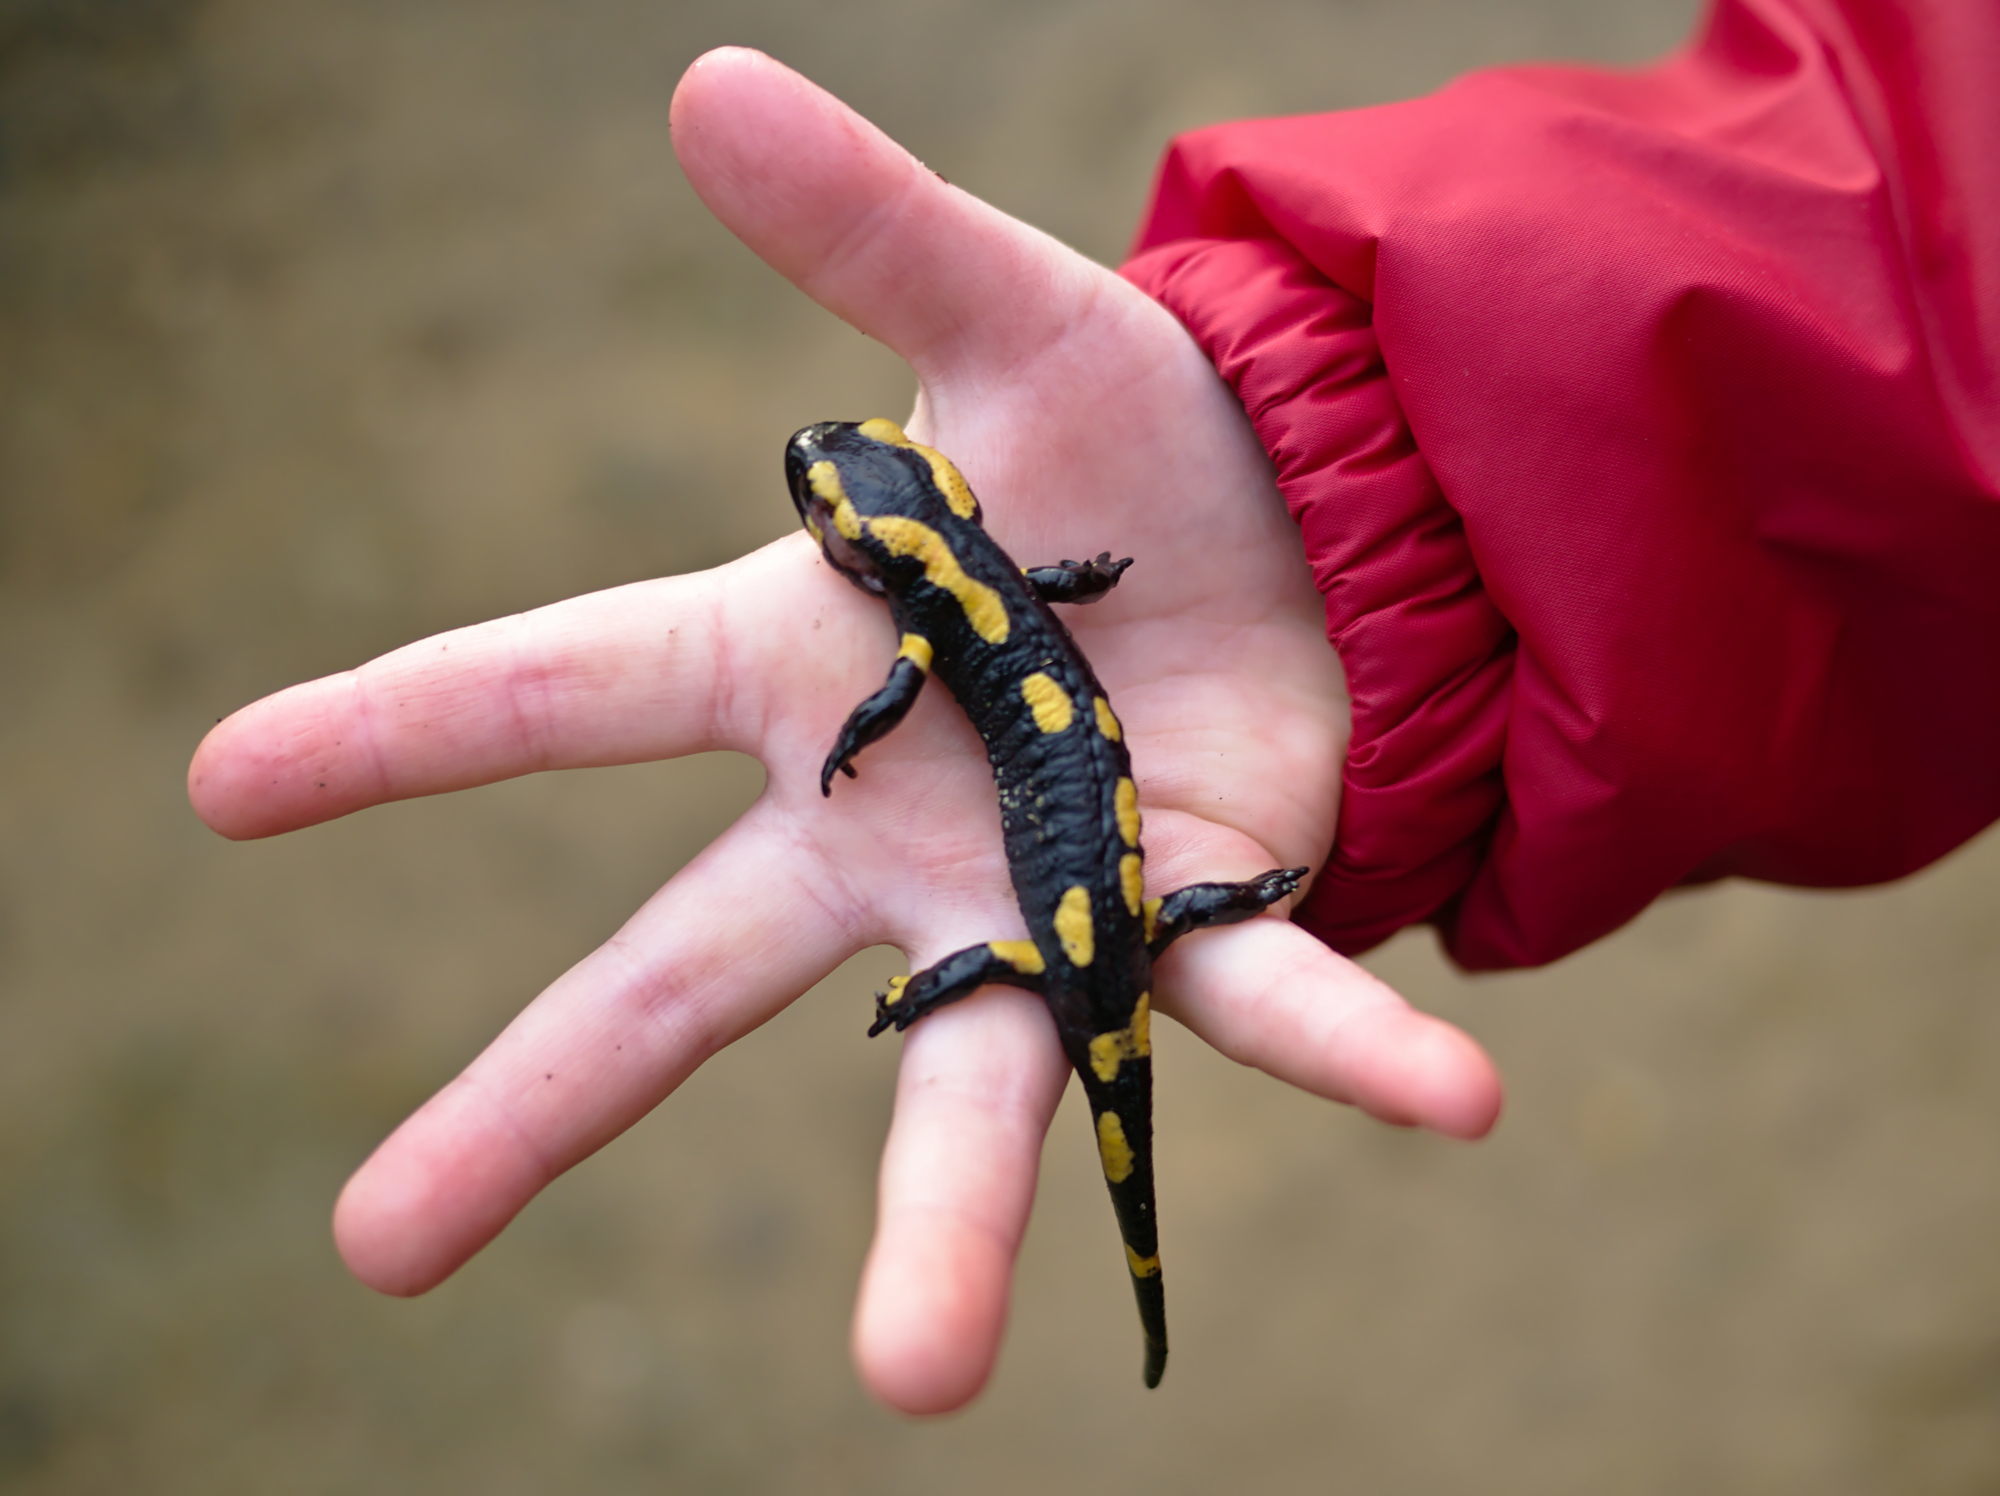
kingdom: Animalia
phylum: Chordata
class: Amphibia
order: Caudata
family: Salamandridae
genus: Salamandra
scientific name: Salamandra salamandra
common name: Fire salamander
